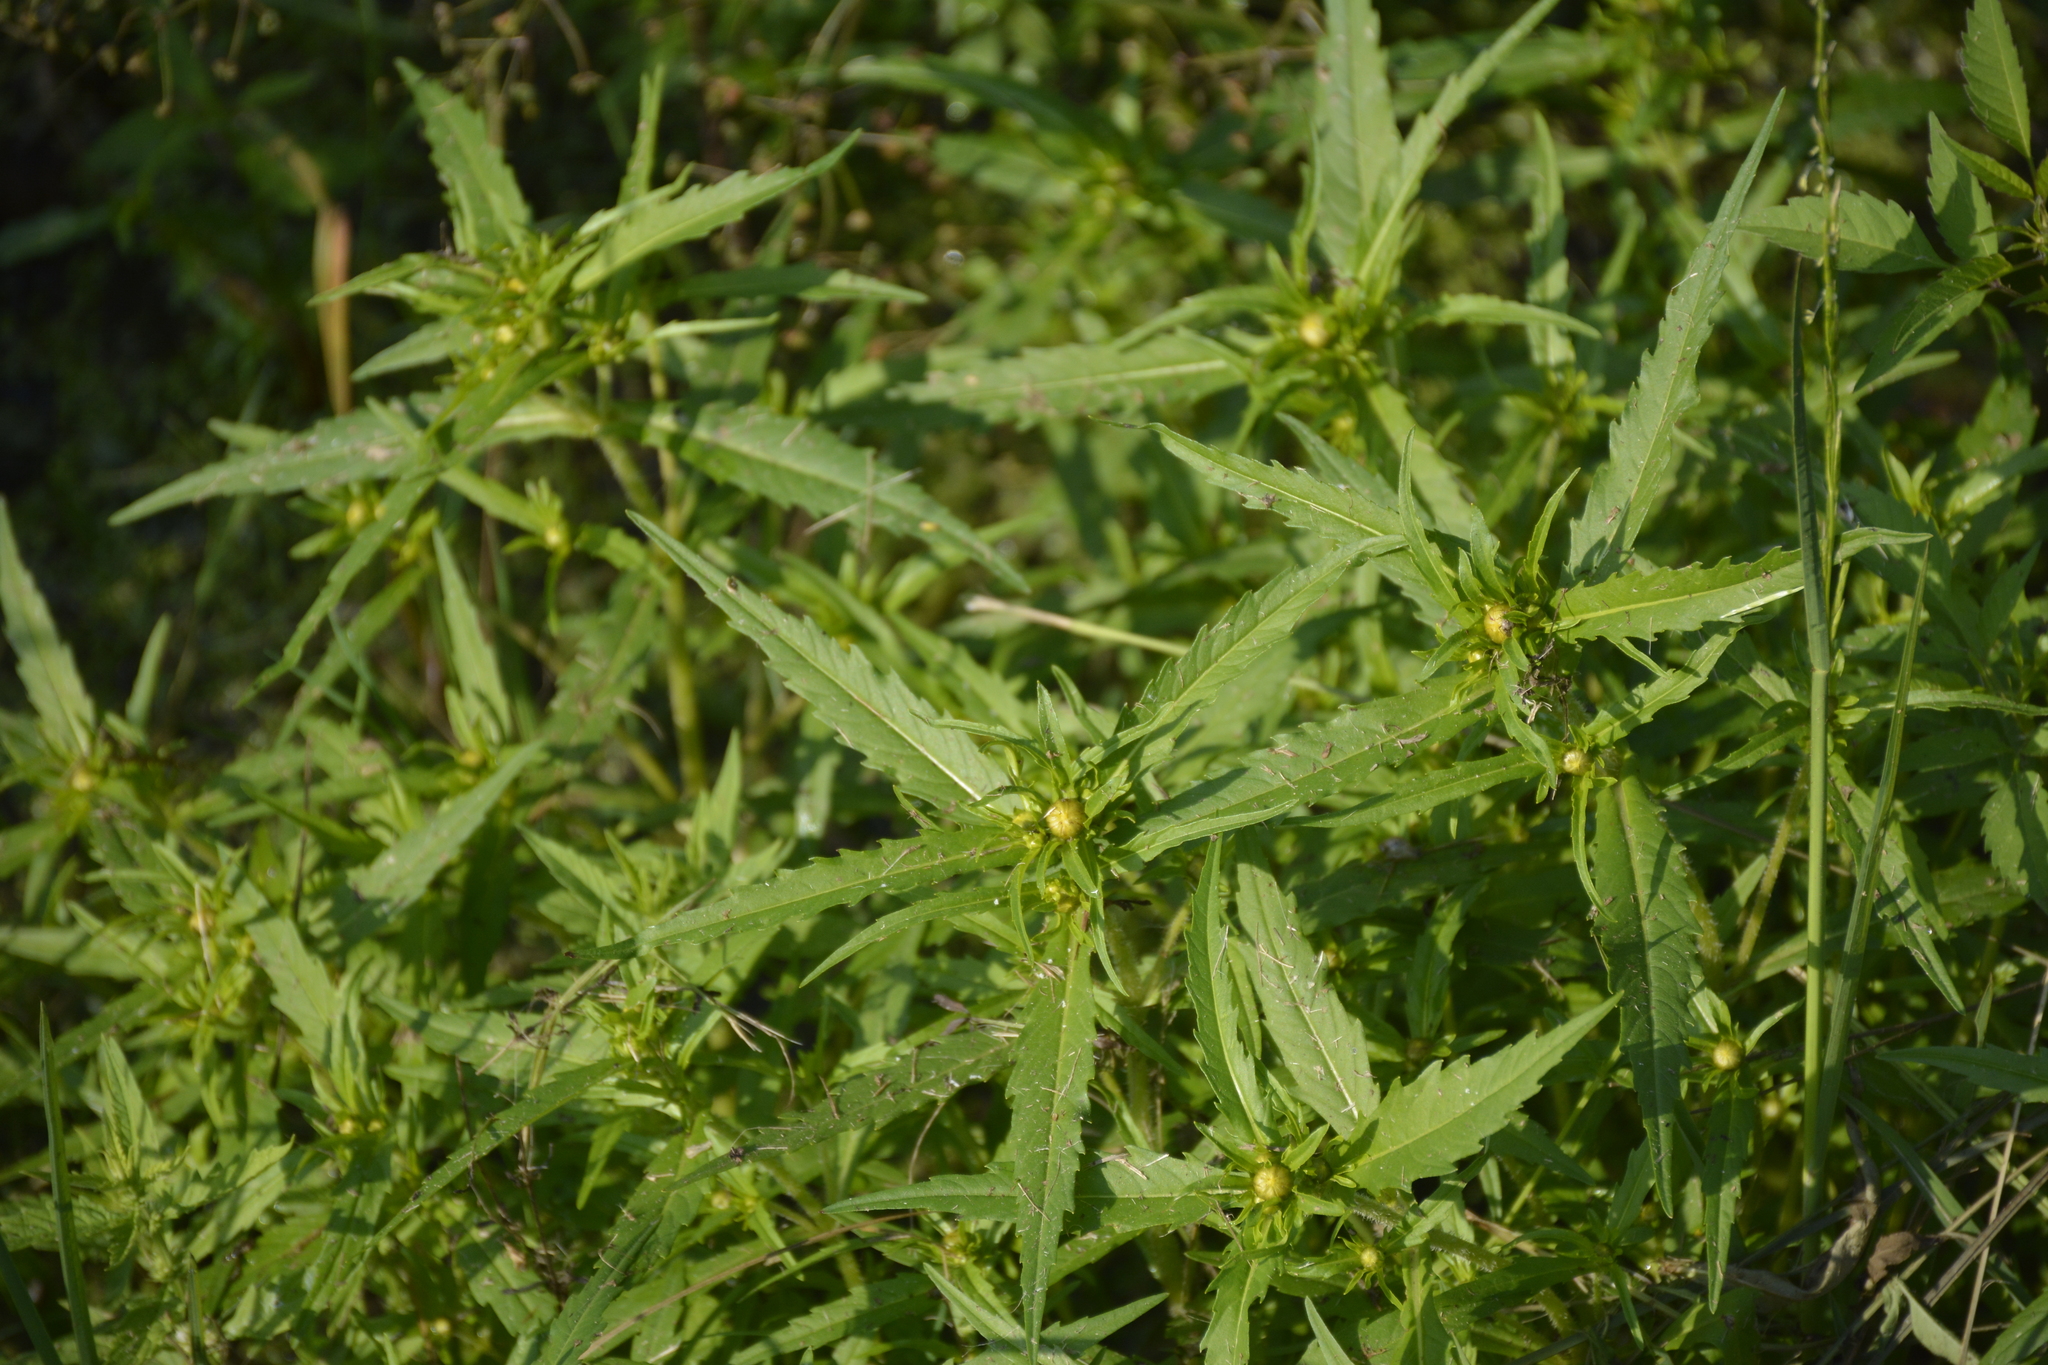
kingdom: Plantae
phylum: Tracheophyta
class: Magnoliopsida
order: Asterales
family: Asteraceae
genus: Bidens
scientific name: Bidens cernua
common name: Nodding bur-marigold
